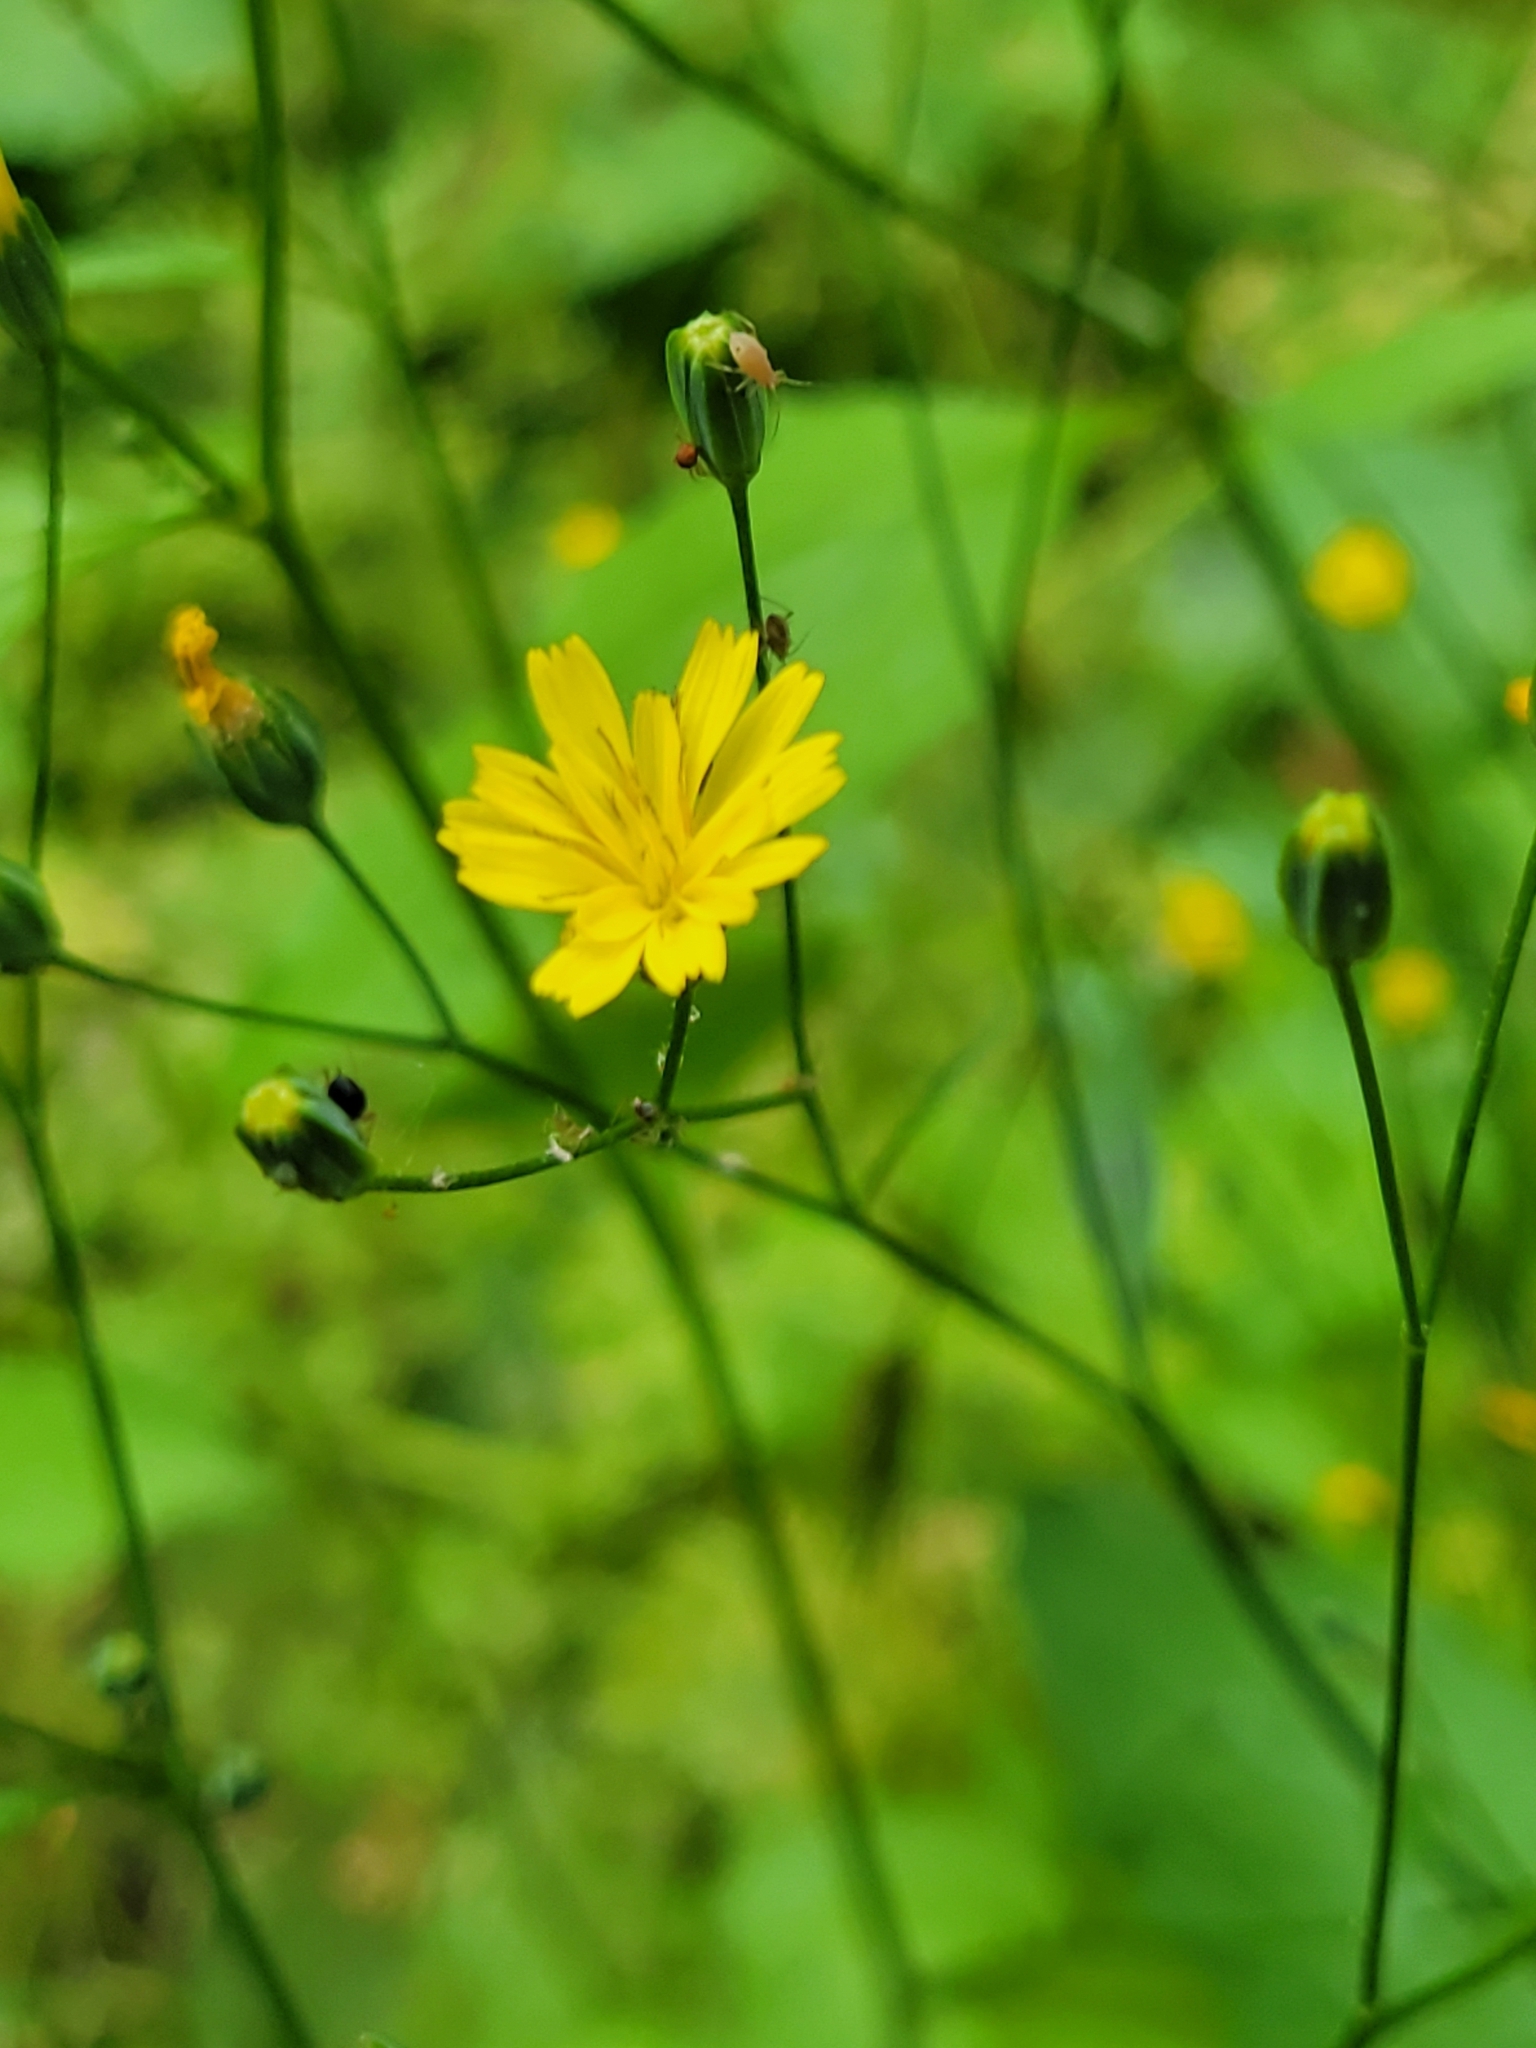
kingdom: Plantae
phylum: Tracheophyta
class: Magnoliopsida
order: Asterales
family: Asteraceae
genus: Lapsana
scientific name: Lapsana communis
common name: Nipplewort
